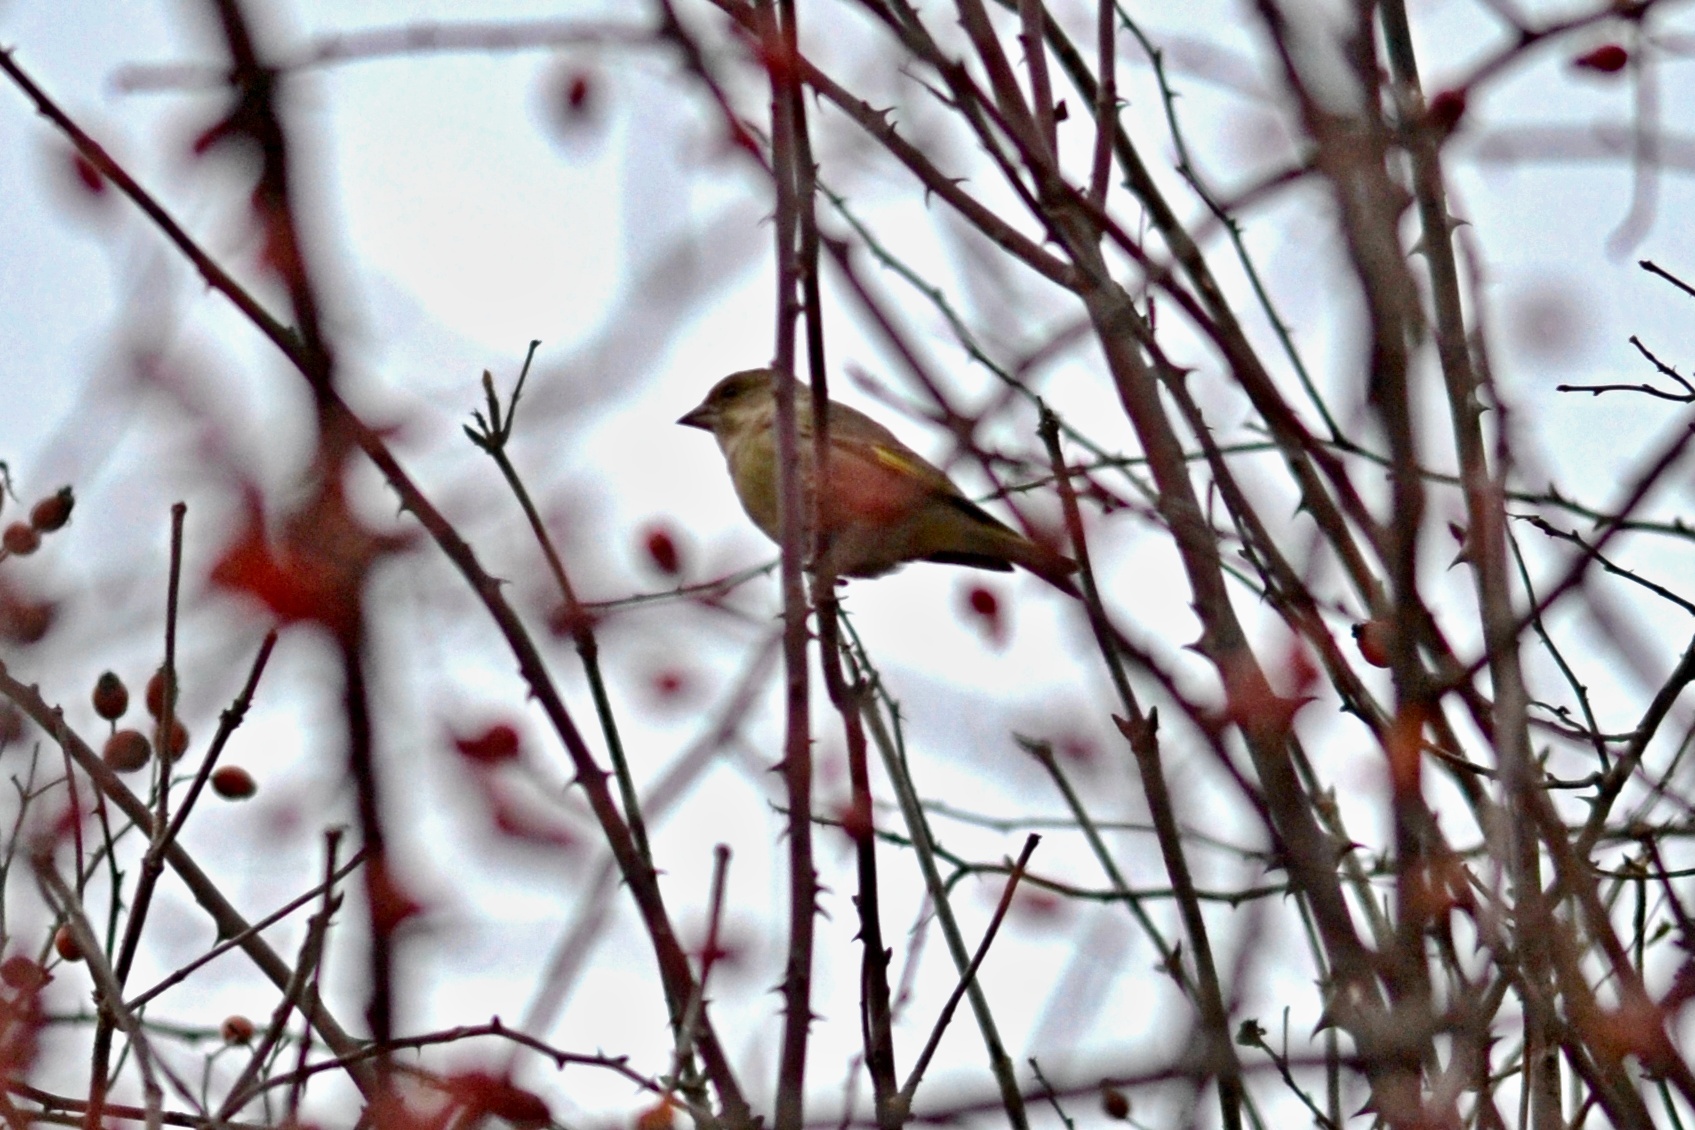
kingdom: Plantae
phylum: Tracheophyta
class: Liliopsida
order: Poales
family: Poaceae
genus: Chloris
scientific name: Chloris chloris
